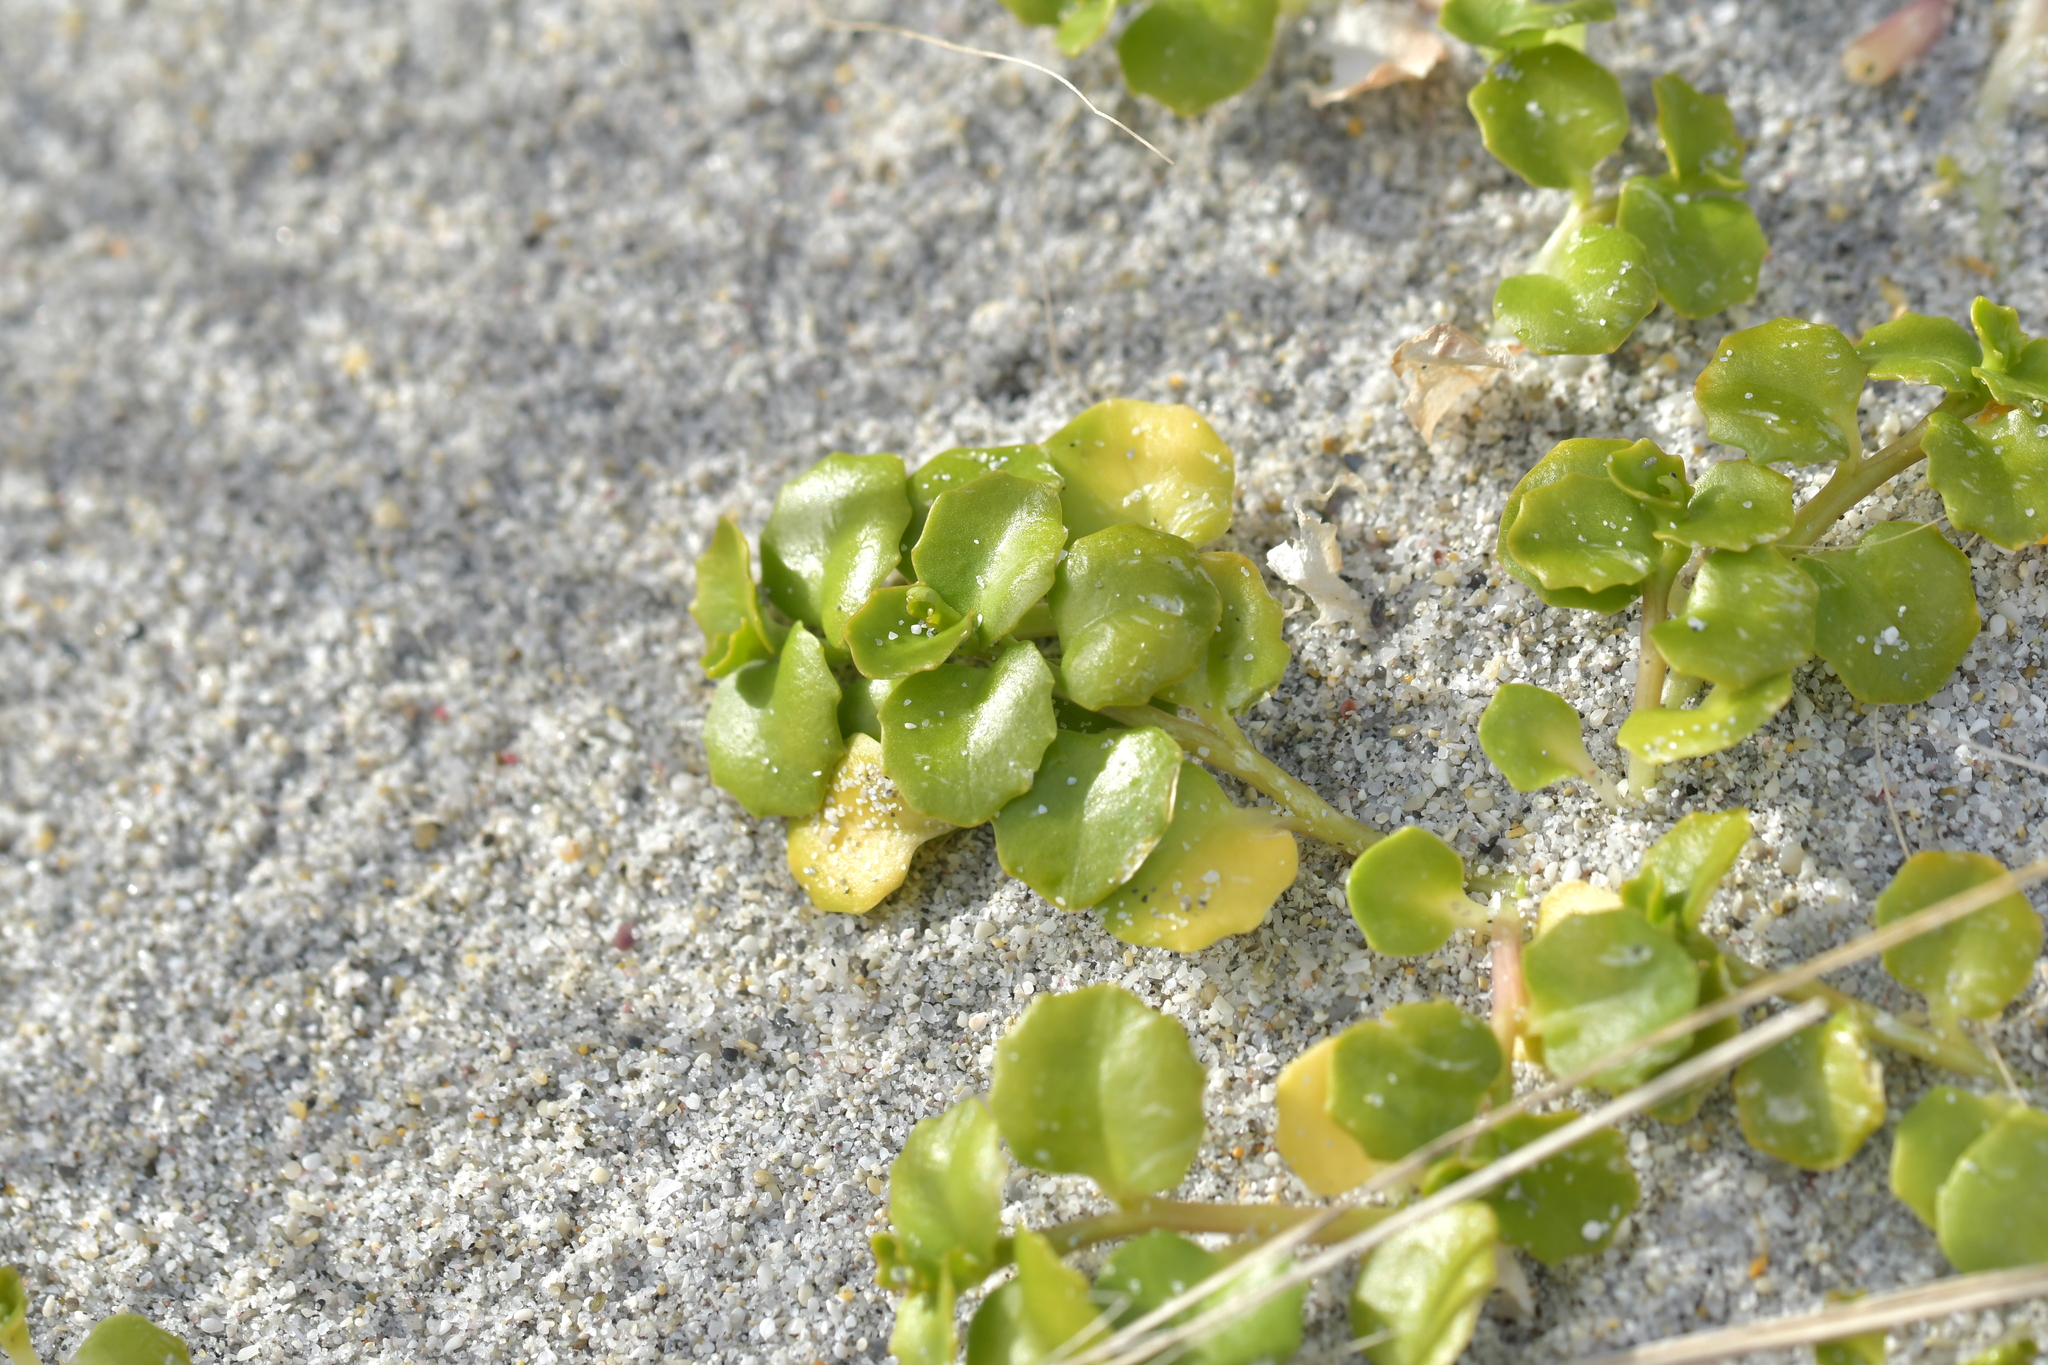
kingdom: Plantae
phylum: Tracheophyta
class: Magnoliopsida
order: Asterales
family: Campanulaceae
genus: Lobelia
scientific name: Lobelia arenaria
